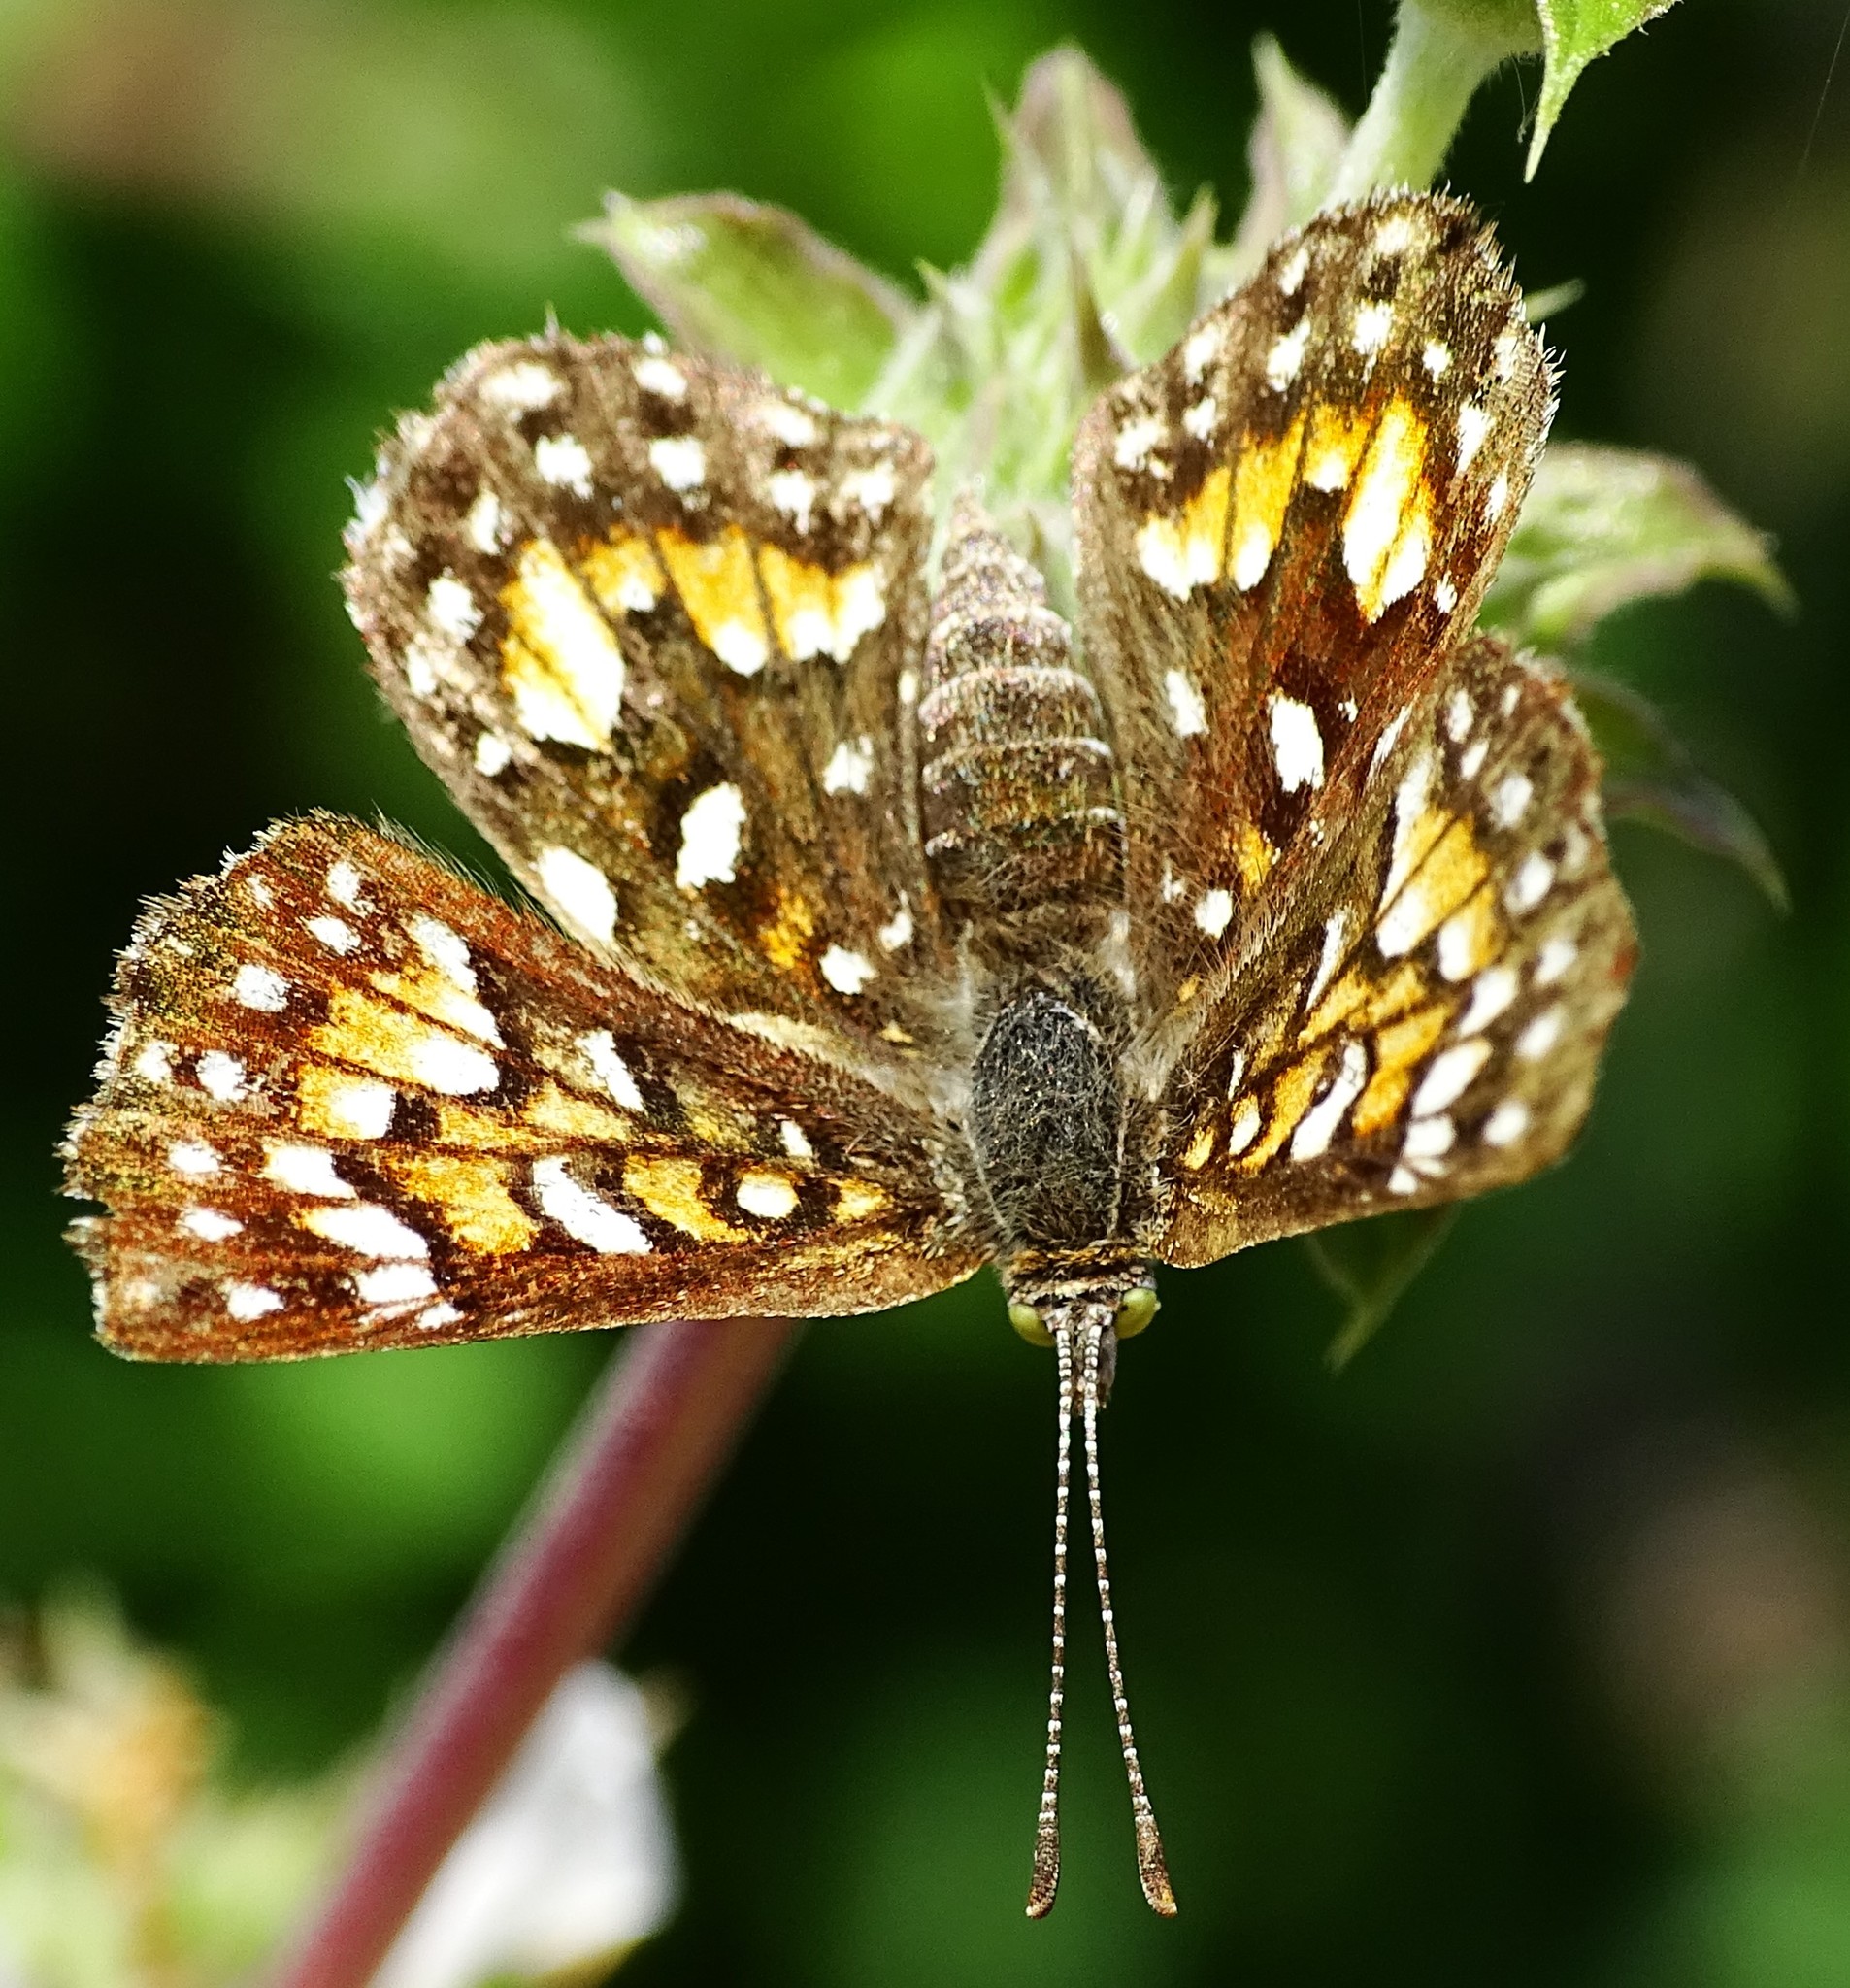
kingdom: Animalia
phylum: Arthropoda
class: Insecta
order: Lepidoptera
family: Riodinidae
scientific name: Riodinidae
